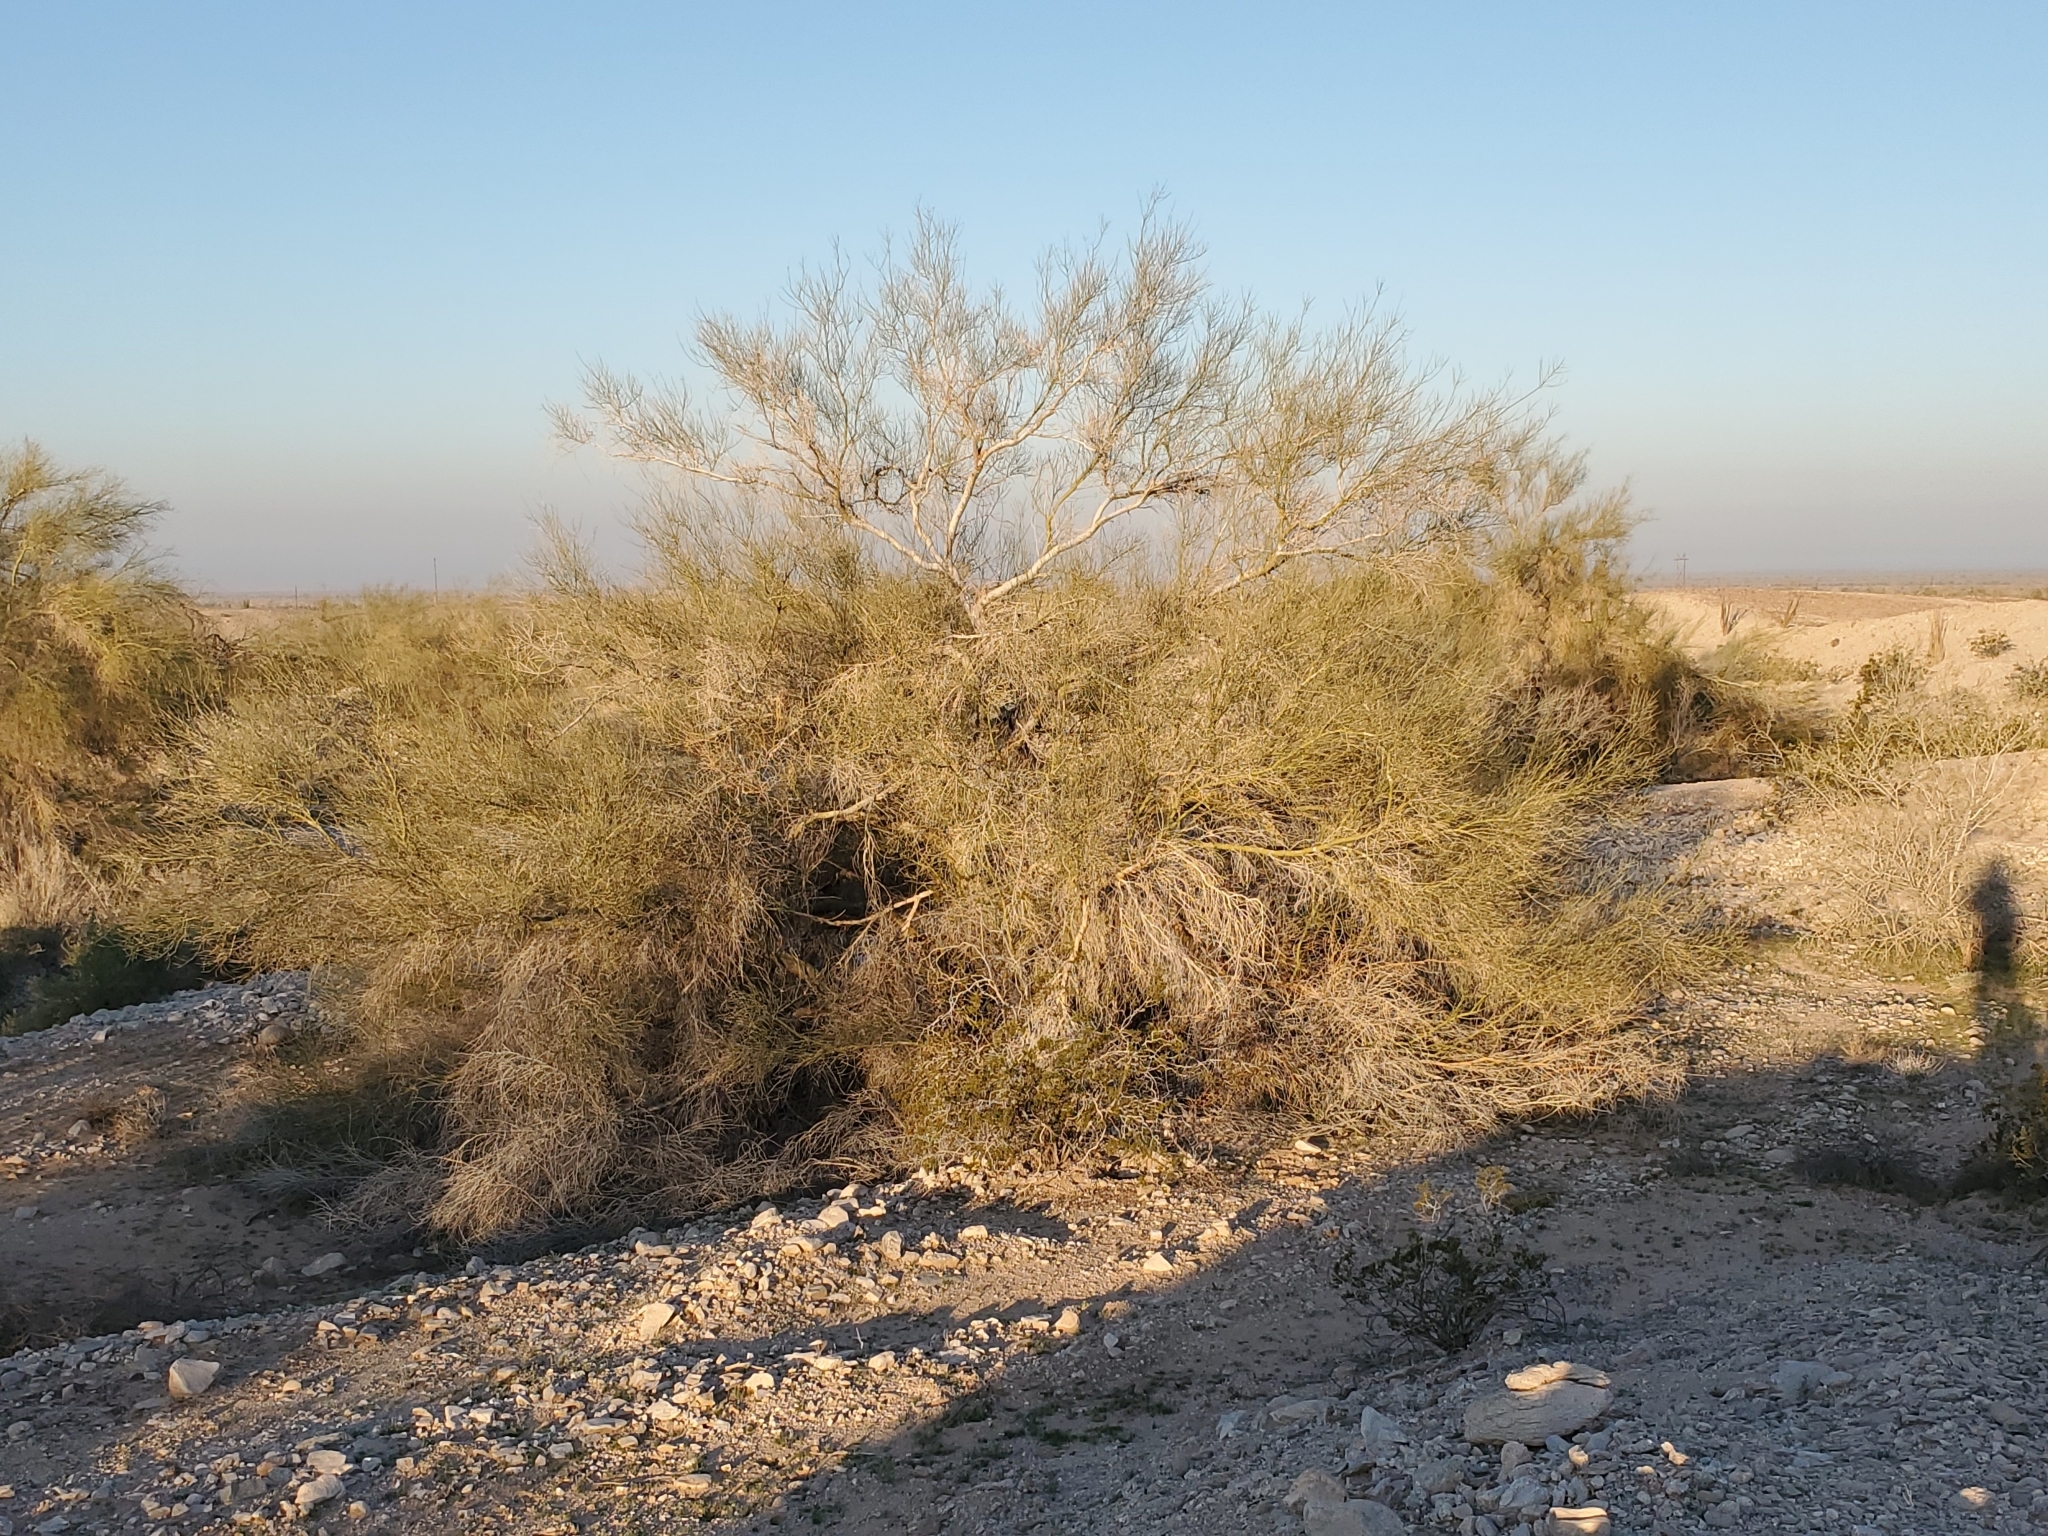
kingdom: Plantae
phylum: Tracheophyta
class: Magnoliopsida
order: Fabales
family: Fabaceae
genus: Parkinsonia
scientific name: Parkinsonia florida
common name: Blue paloverde
